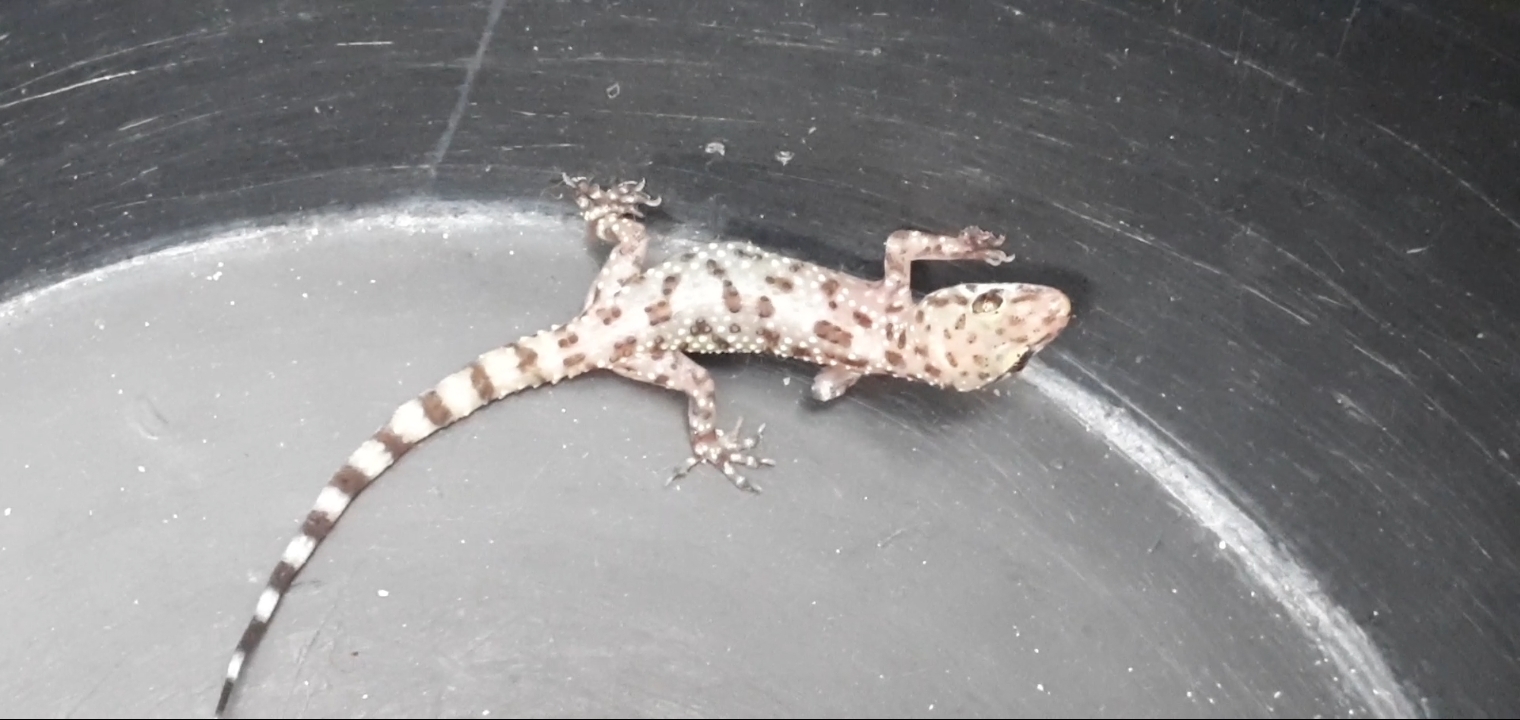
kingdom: Animalia
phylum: Chordata
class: Squamata
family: Gekkonidae
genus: Hemidactylus
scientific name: Hemidactylus turcicus
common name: Turkish gecko
